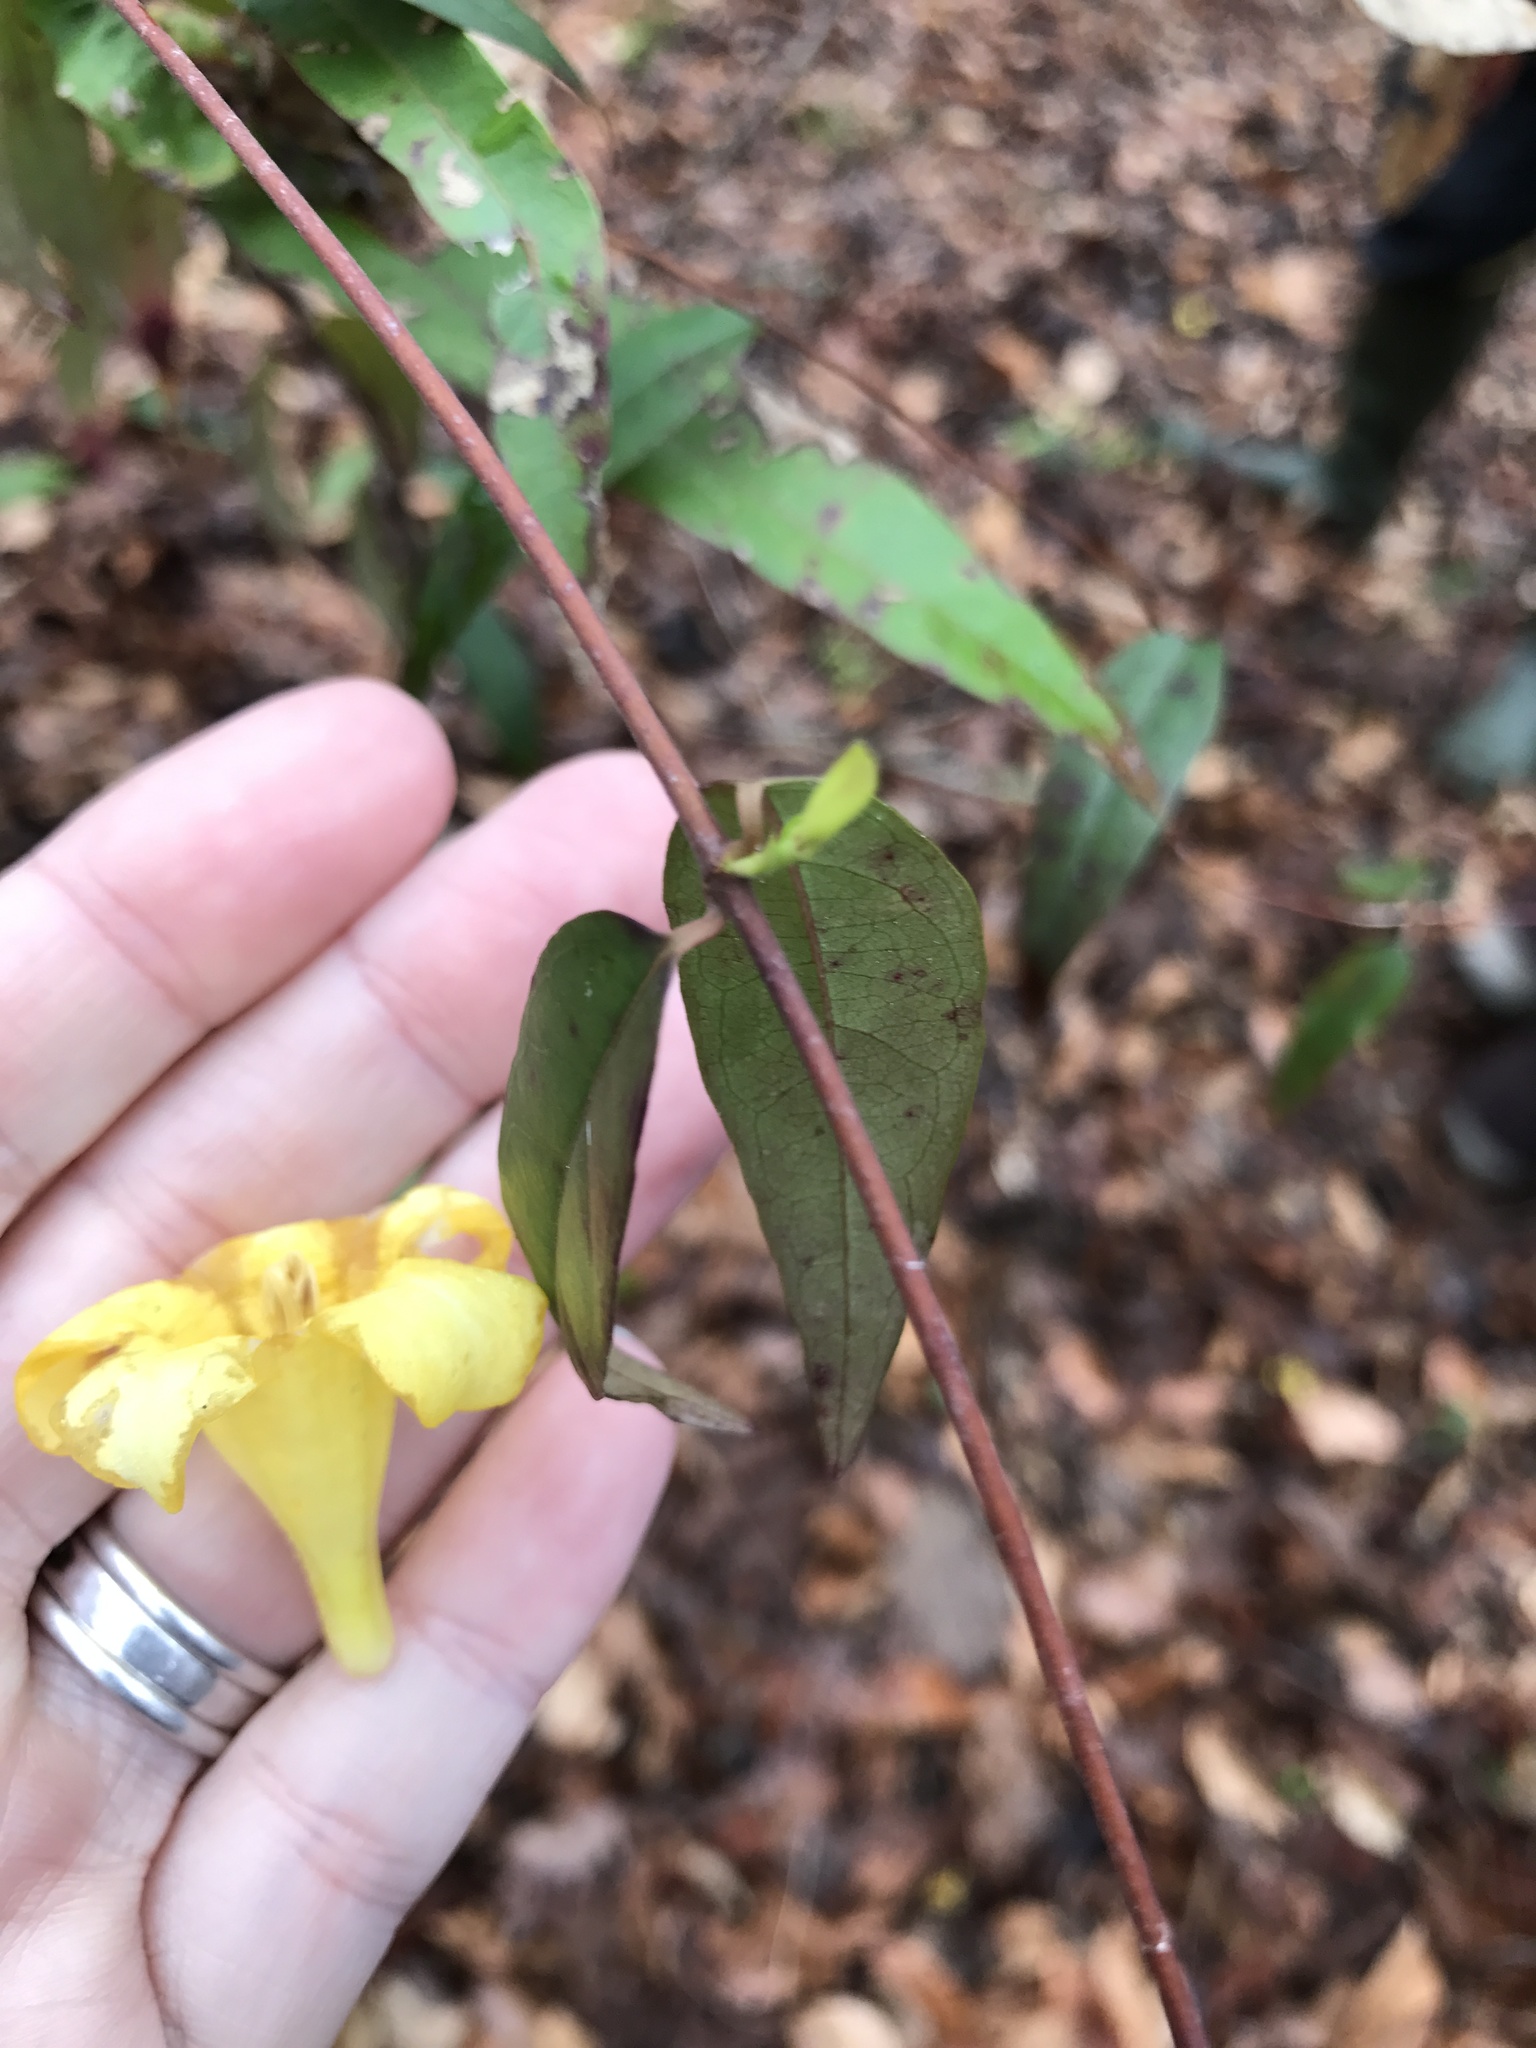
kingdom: Plantae
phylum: Tracheophyta
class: Magnoliopsida
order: Gentianales
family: Gelsemiaceae
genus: Gelsemium
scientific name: Gelsemium sempervirens
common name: Carolina-jasmine
